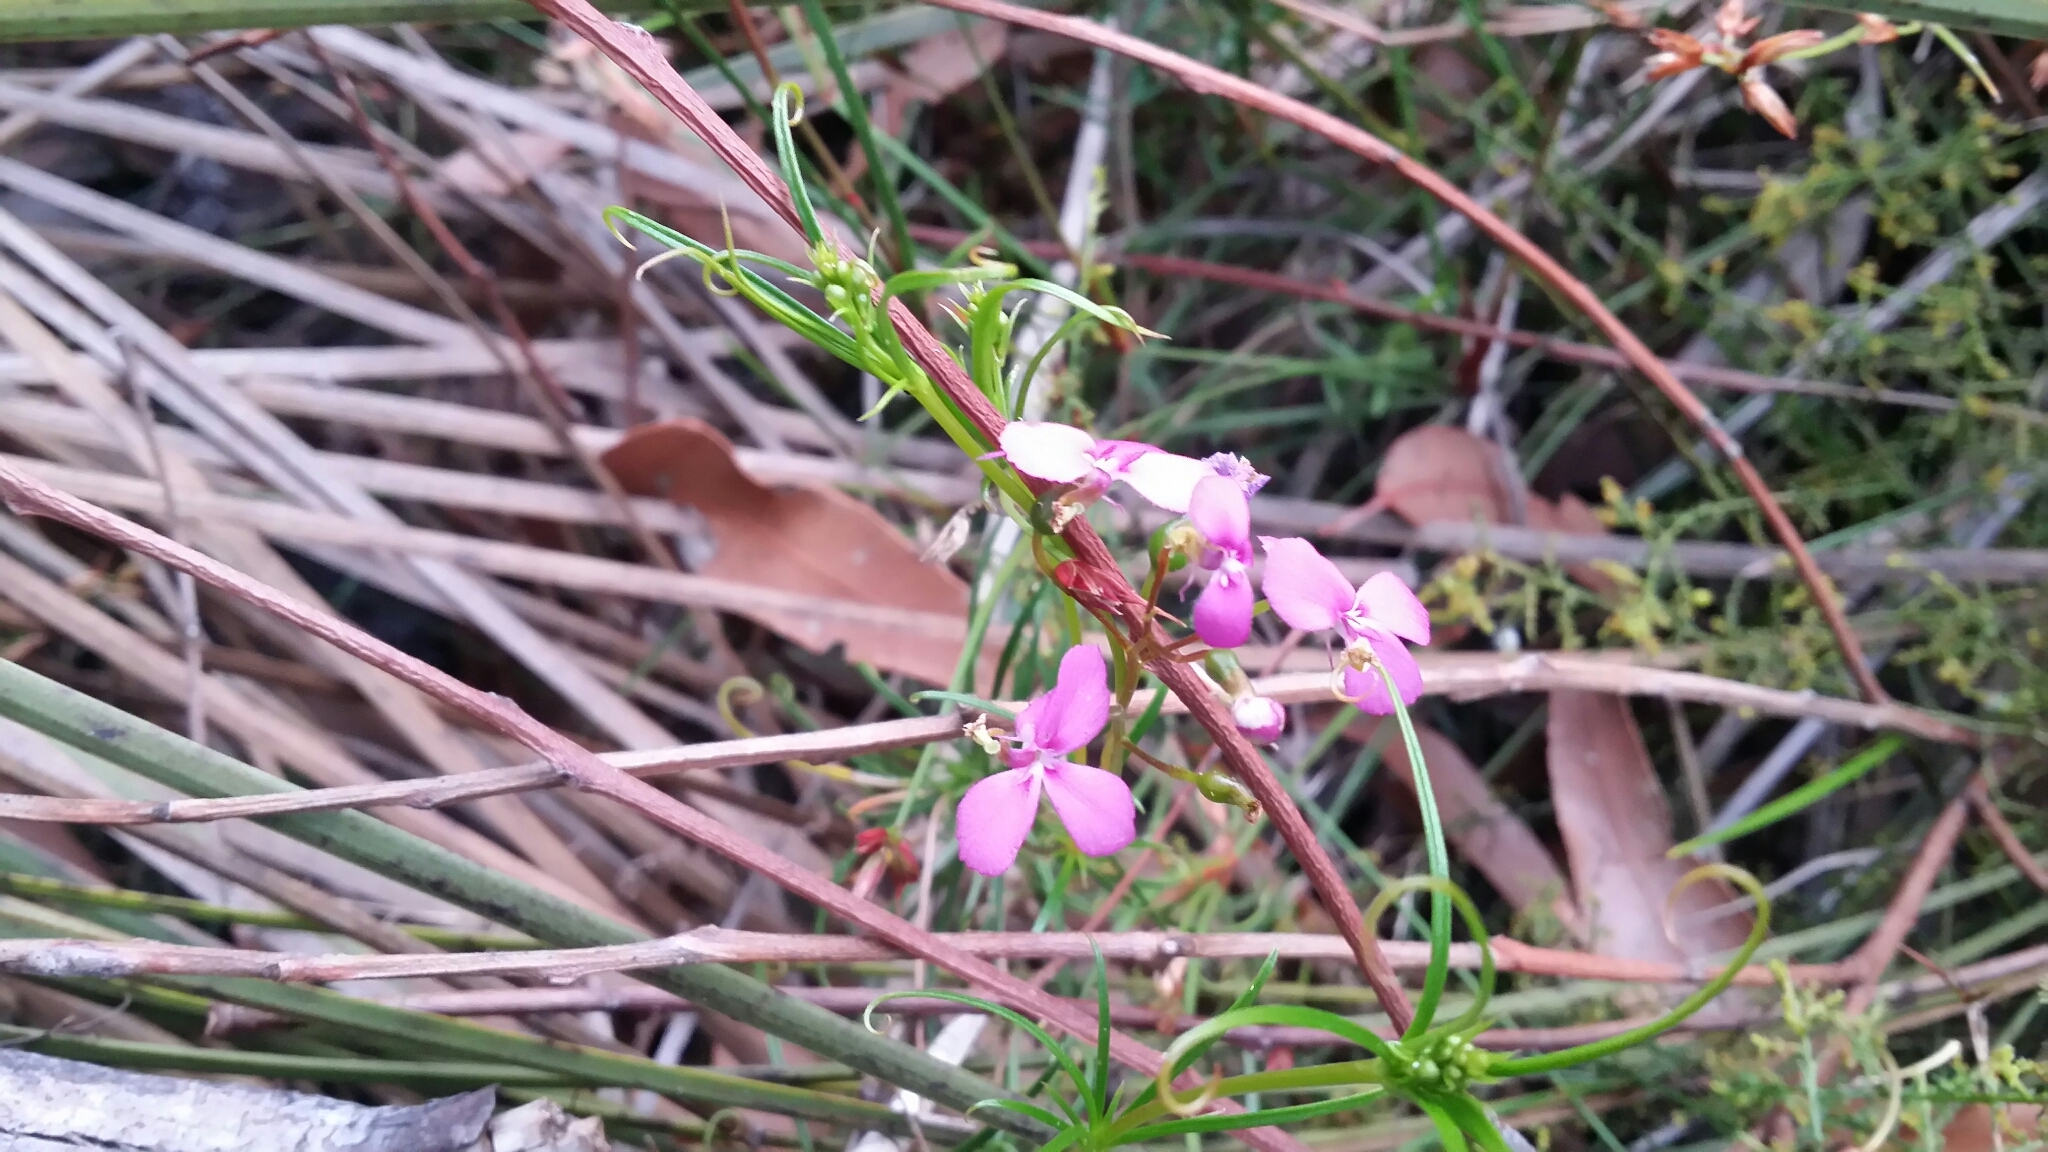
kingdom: Plantae
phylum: Tracheophyta
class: Magnoliopsida
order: Asterales
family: Stylidiaceae
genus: Stylidium
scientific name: Stylidium scandens
